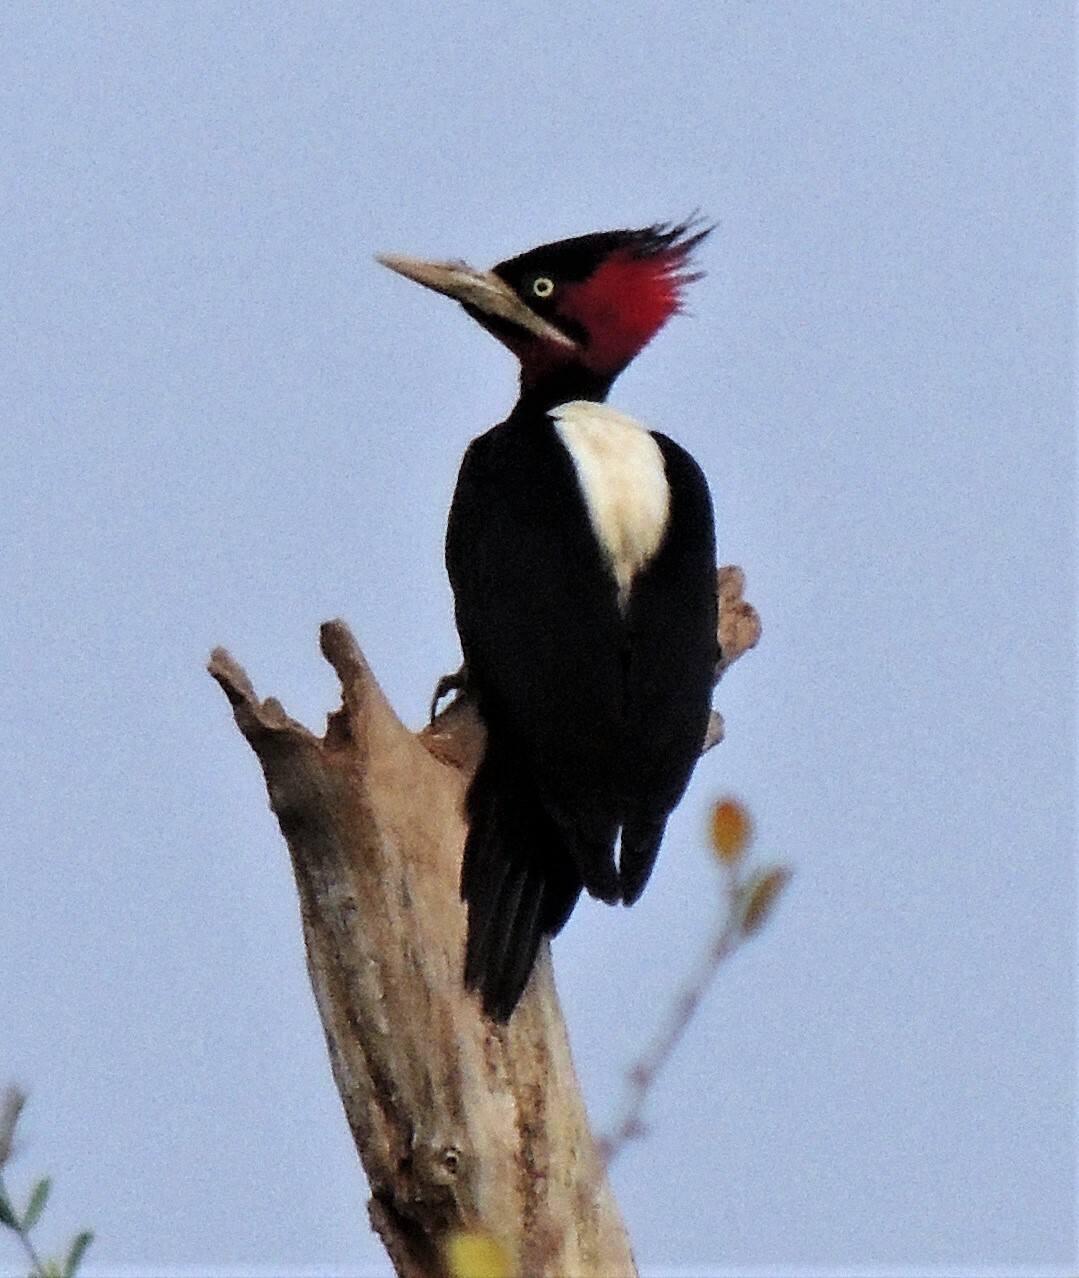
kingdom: Animalia
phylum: Chordata
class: Aves
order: Piciformes
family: Picidae
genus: Campephilus
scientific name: Campephilus leucopogon
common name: Cream-backed woodpecker
